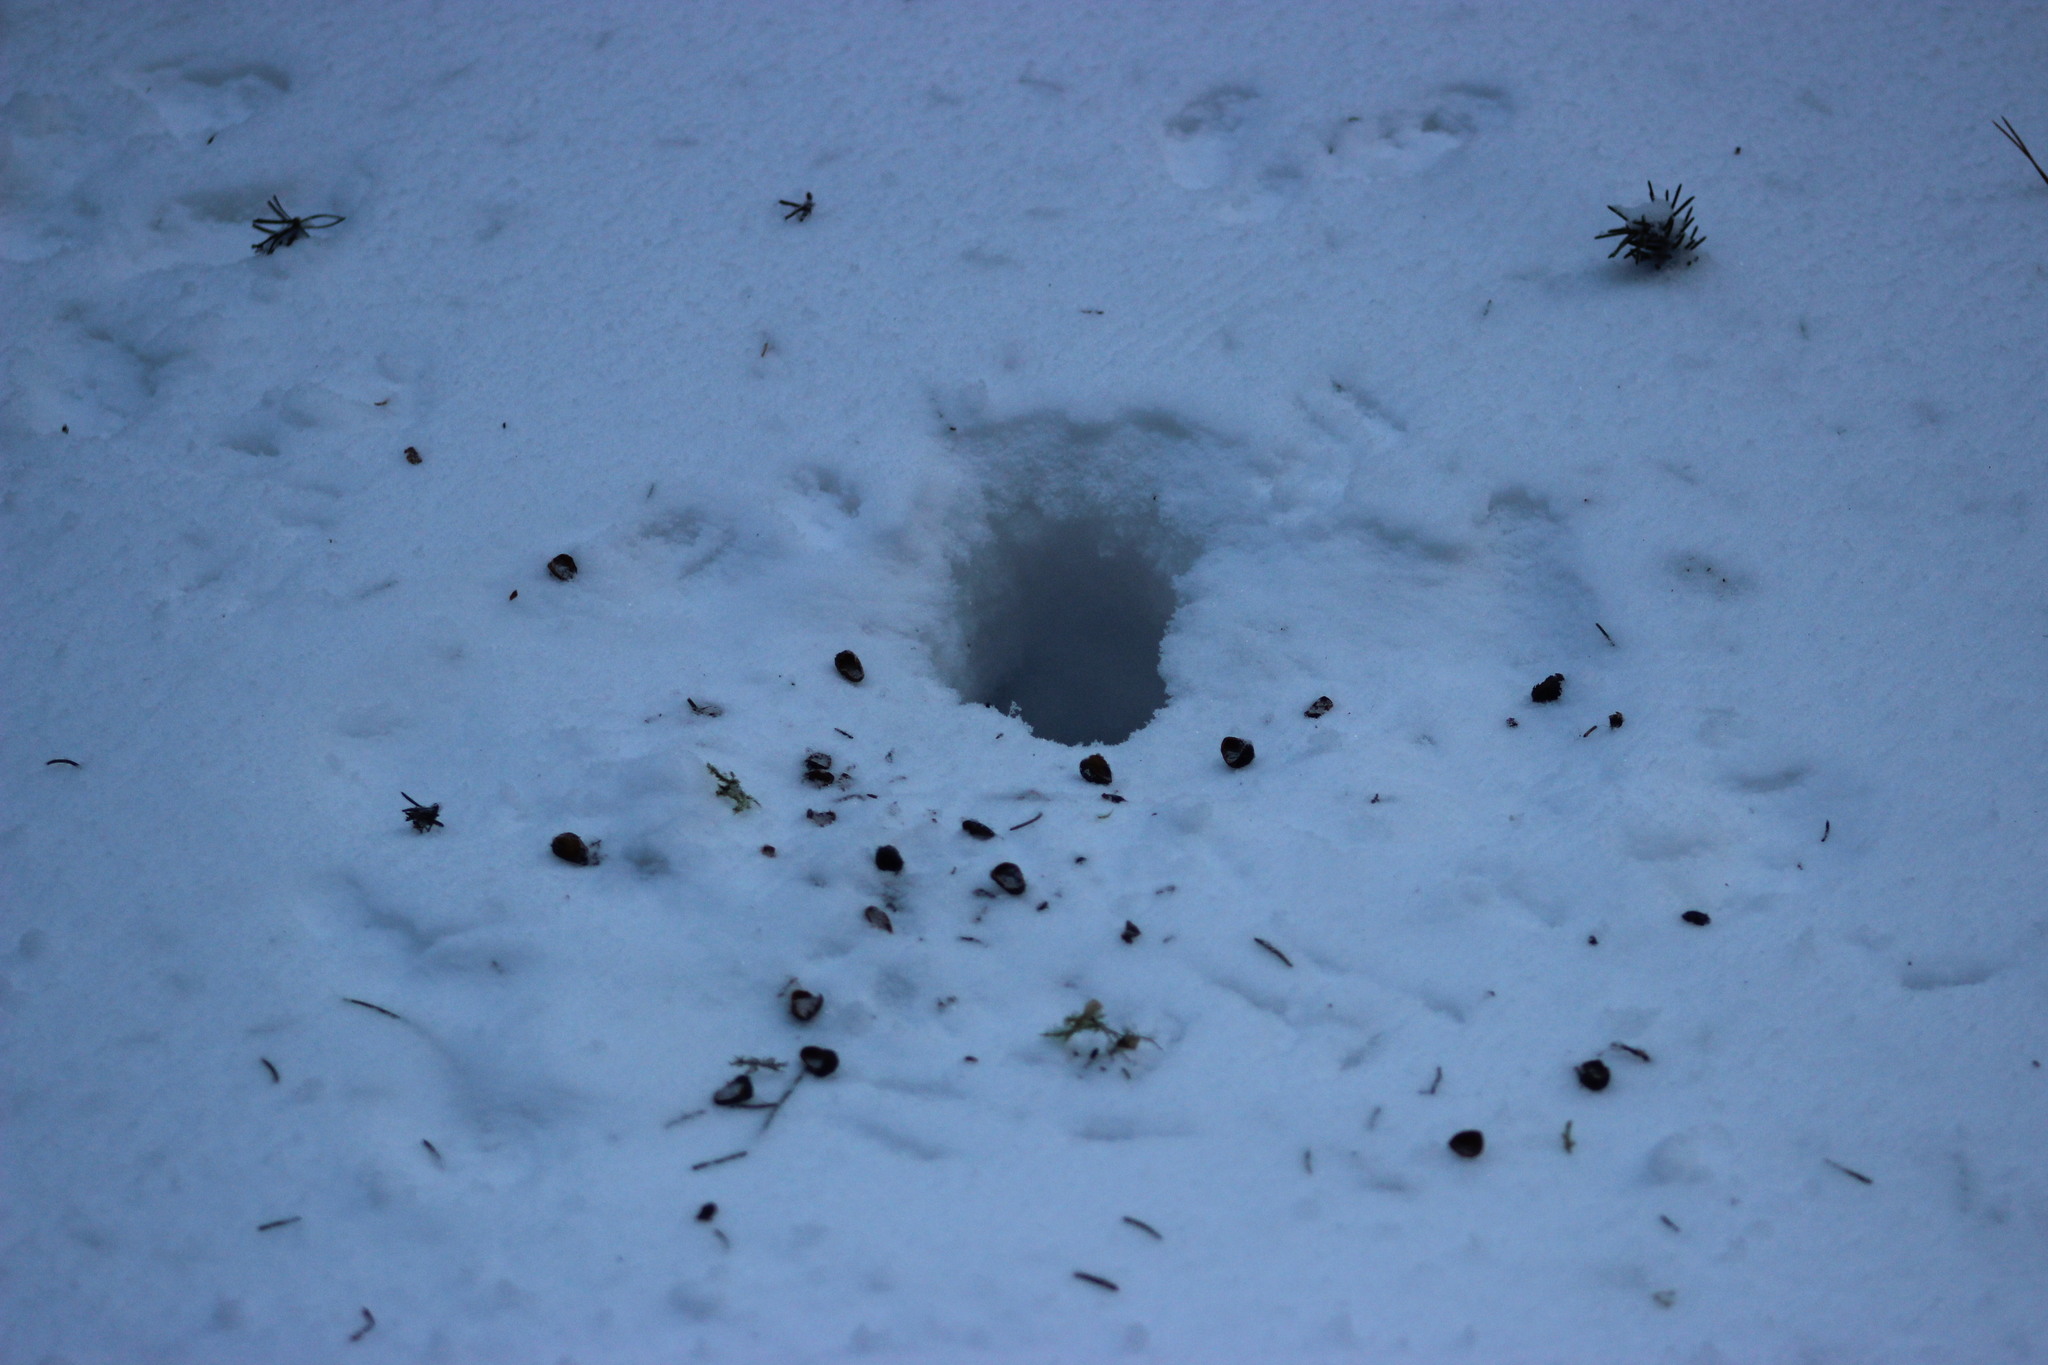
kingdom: Animalia
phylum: Chordata
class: Mammalia
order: Rodentia
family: Sciuridae
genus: Sciurus
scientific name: Sciurus vulgaris
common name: Eurasian red squirrel
